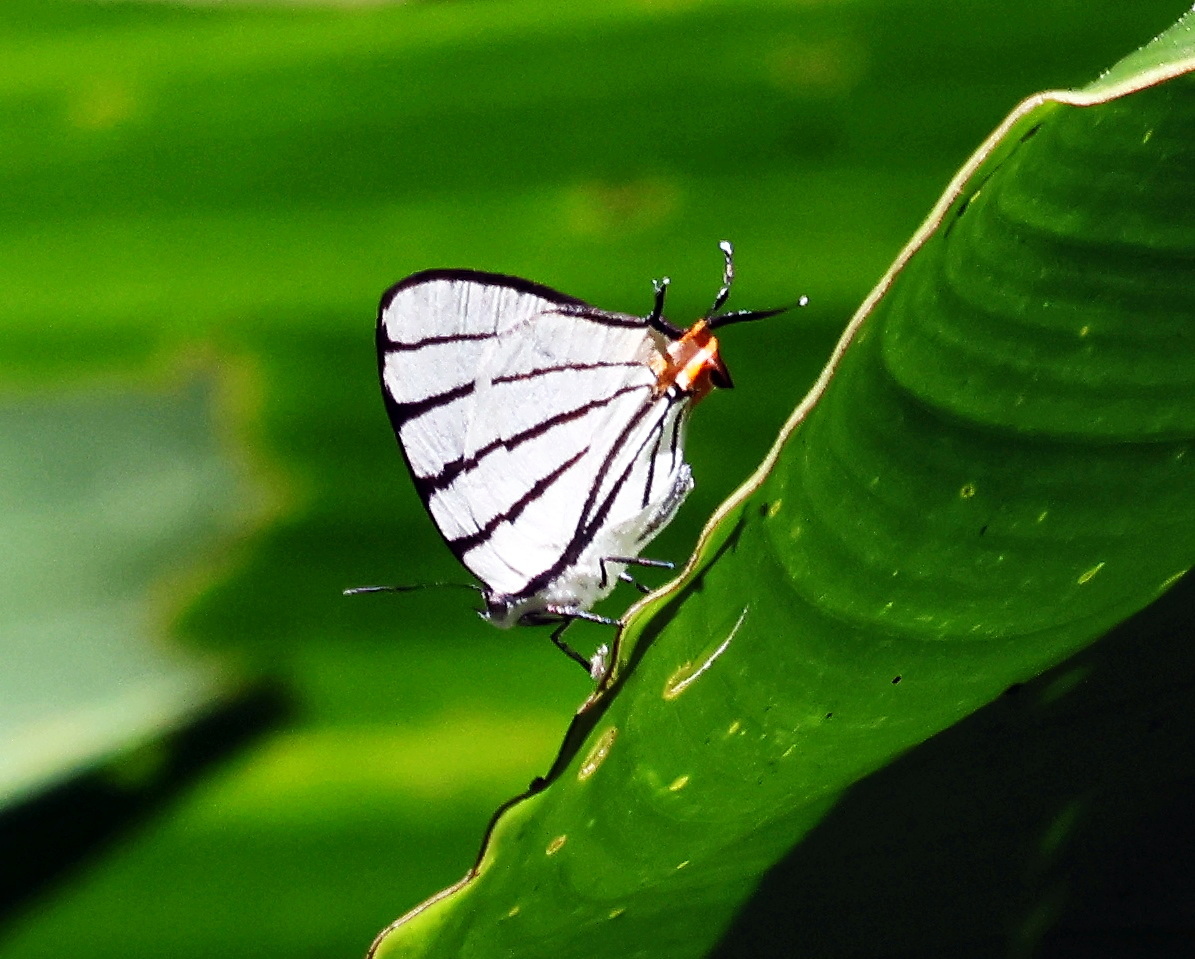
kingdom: Animalia
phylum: Arthropoda
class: Insecta
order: Lepidoptera
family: Lycaenidae
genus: Arawacus
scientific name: Arawacus sito
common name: Fine-lined hairstreak
